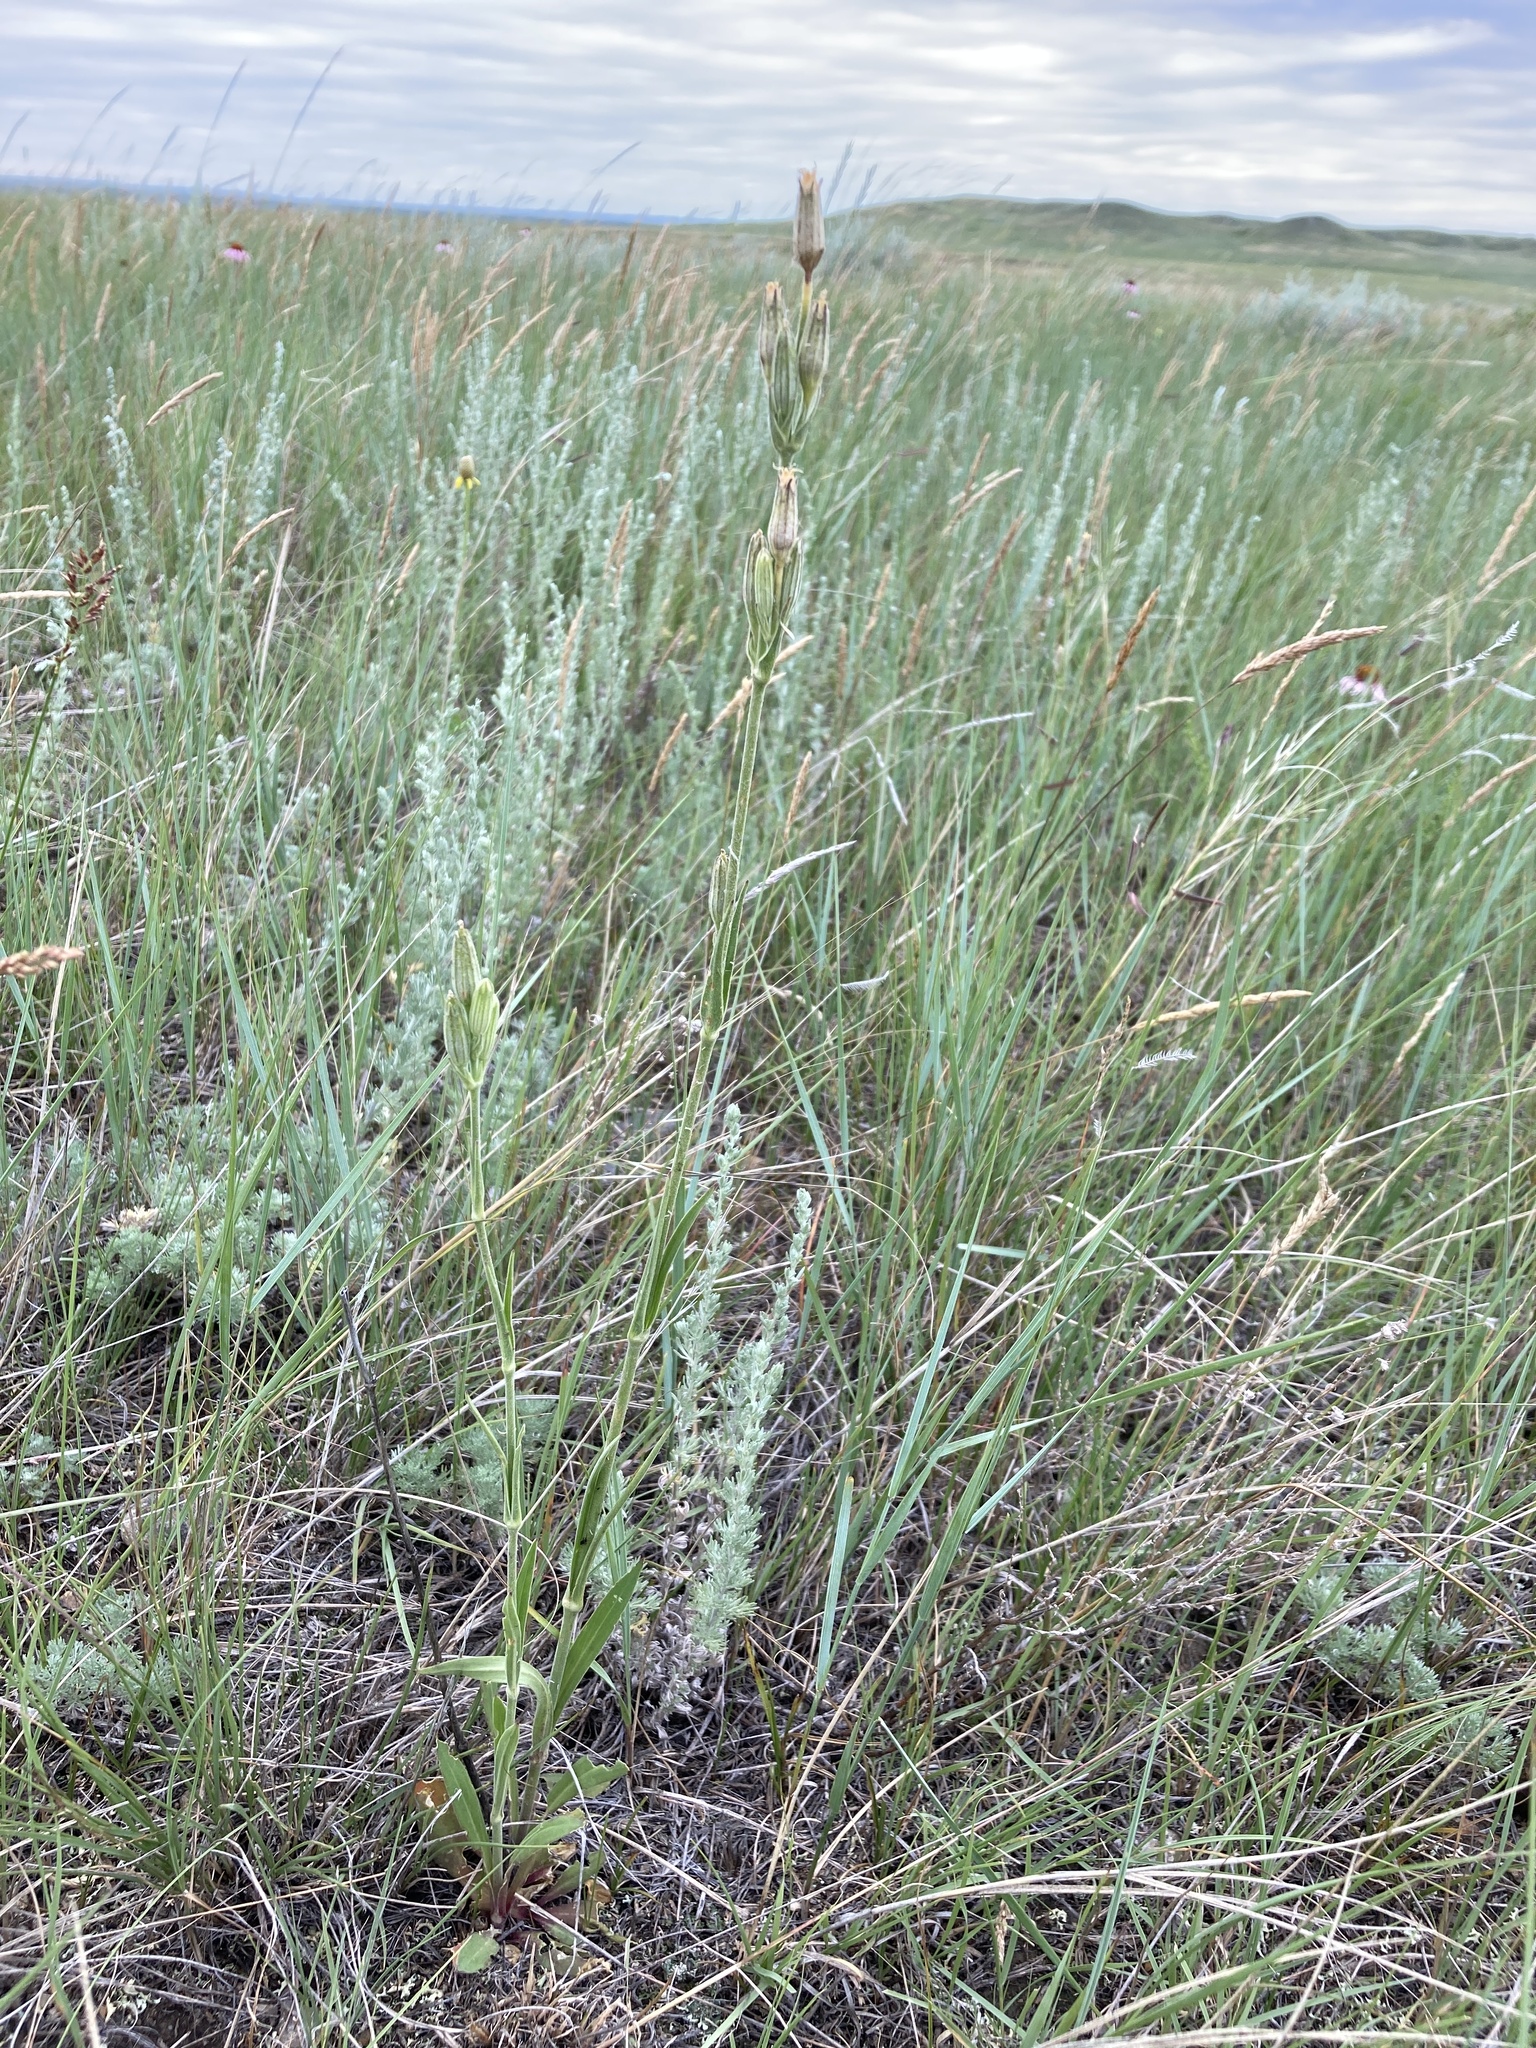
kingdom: Plantae
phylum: Tracheophyta
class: Magnoliopsida
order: Caryophyllales
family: Caryophyllaceae
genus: Silene
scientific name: Silene drummondii
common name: Drummond's catchfly
